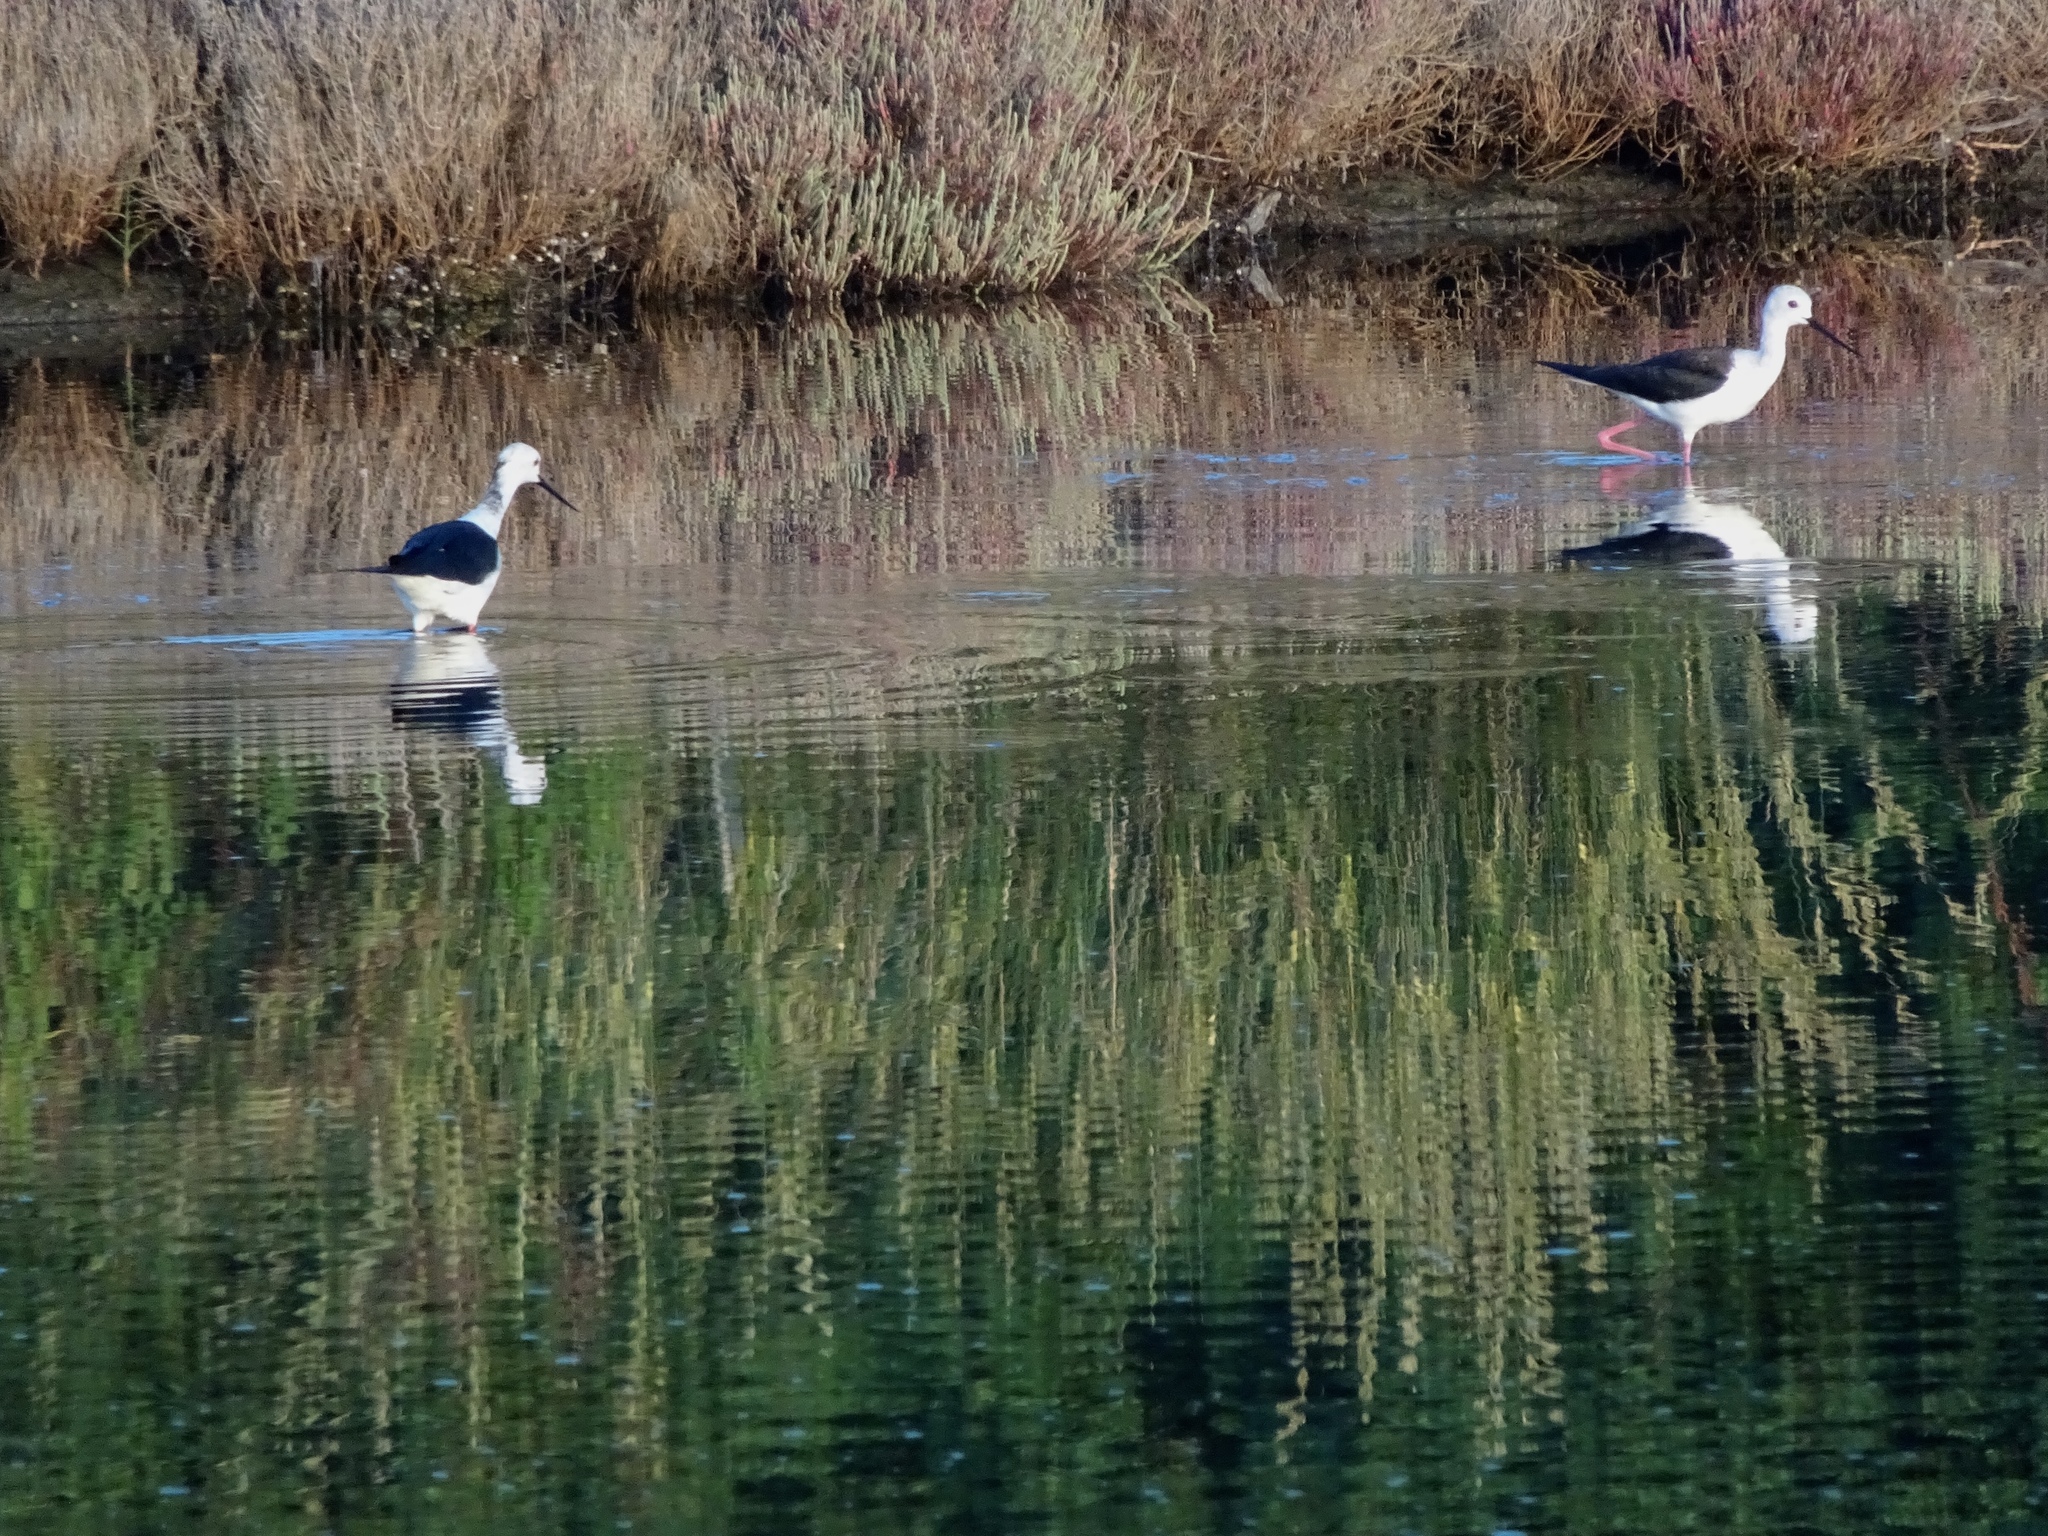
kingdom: Animalia
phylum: Chordata
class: Aves
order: Charadriiformes
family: Recurvirostridae
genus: Himantopus
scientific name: Himantopus himantopus
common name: Black-winged stilt
